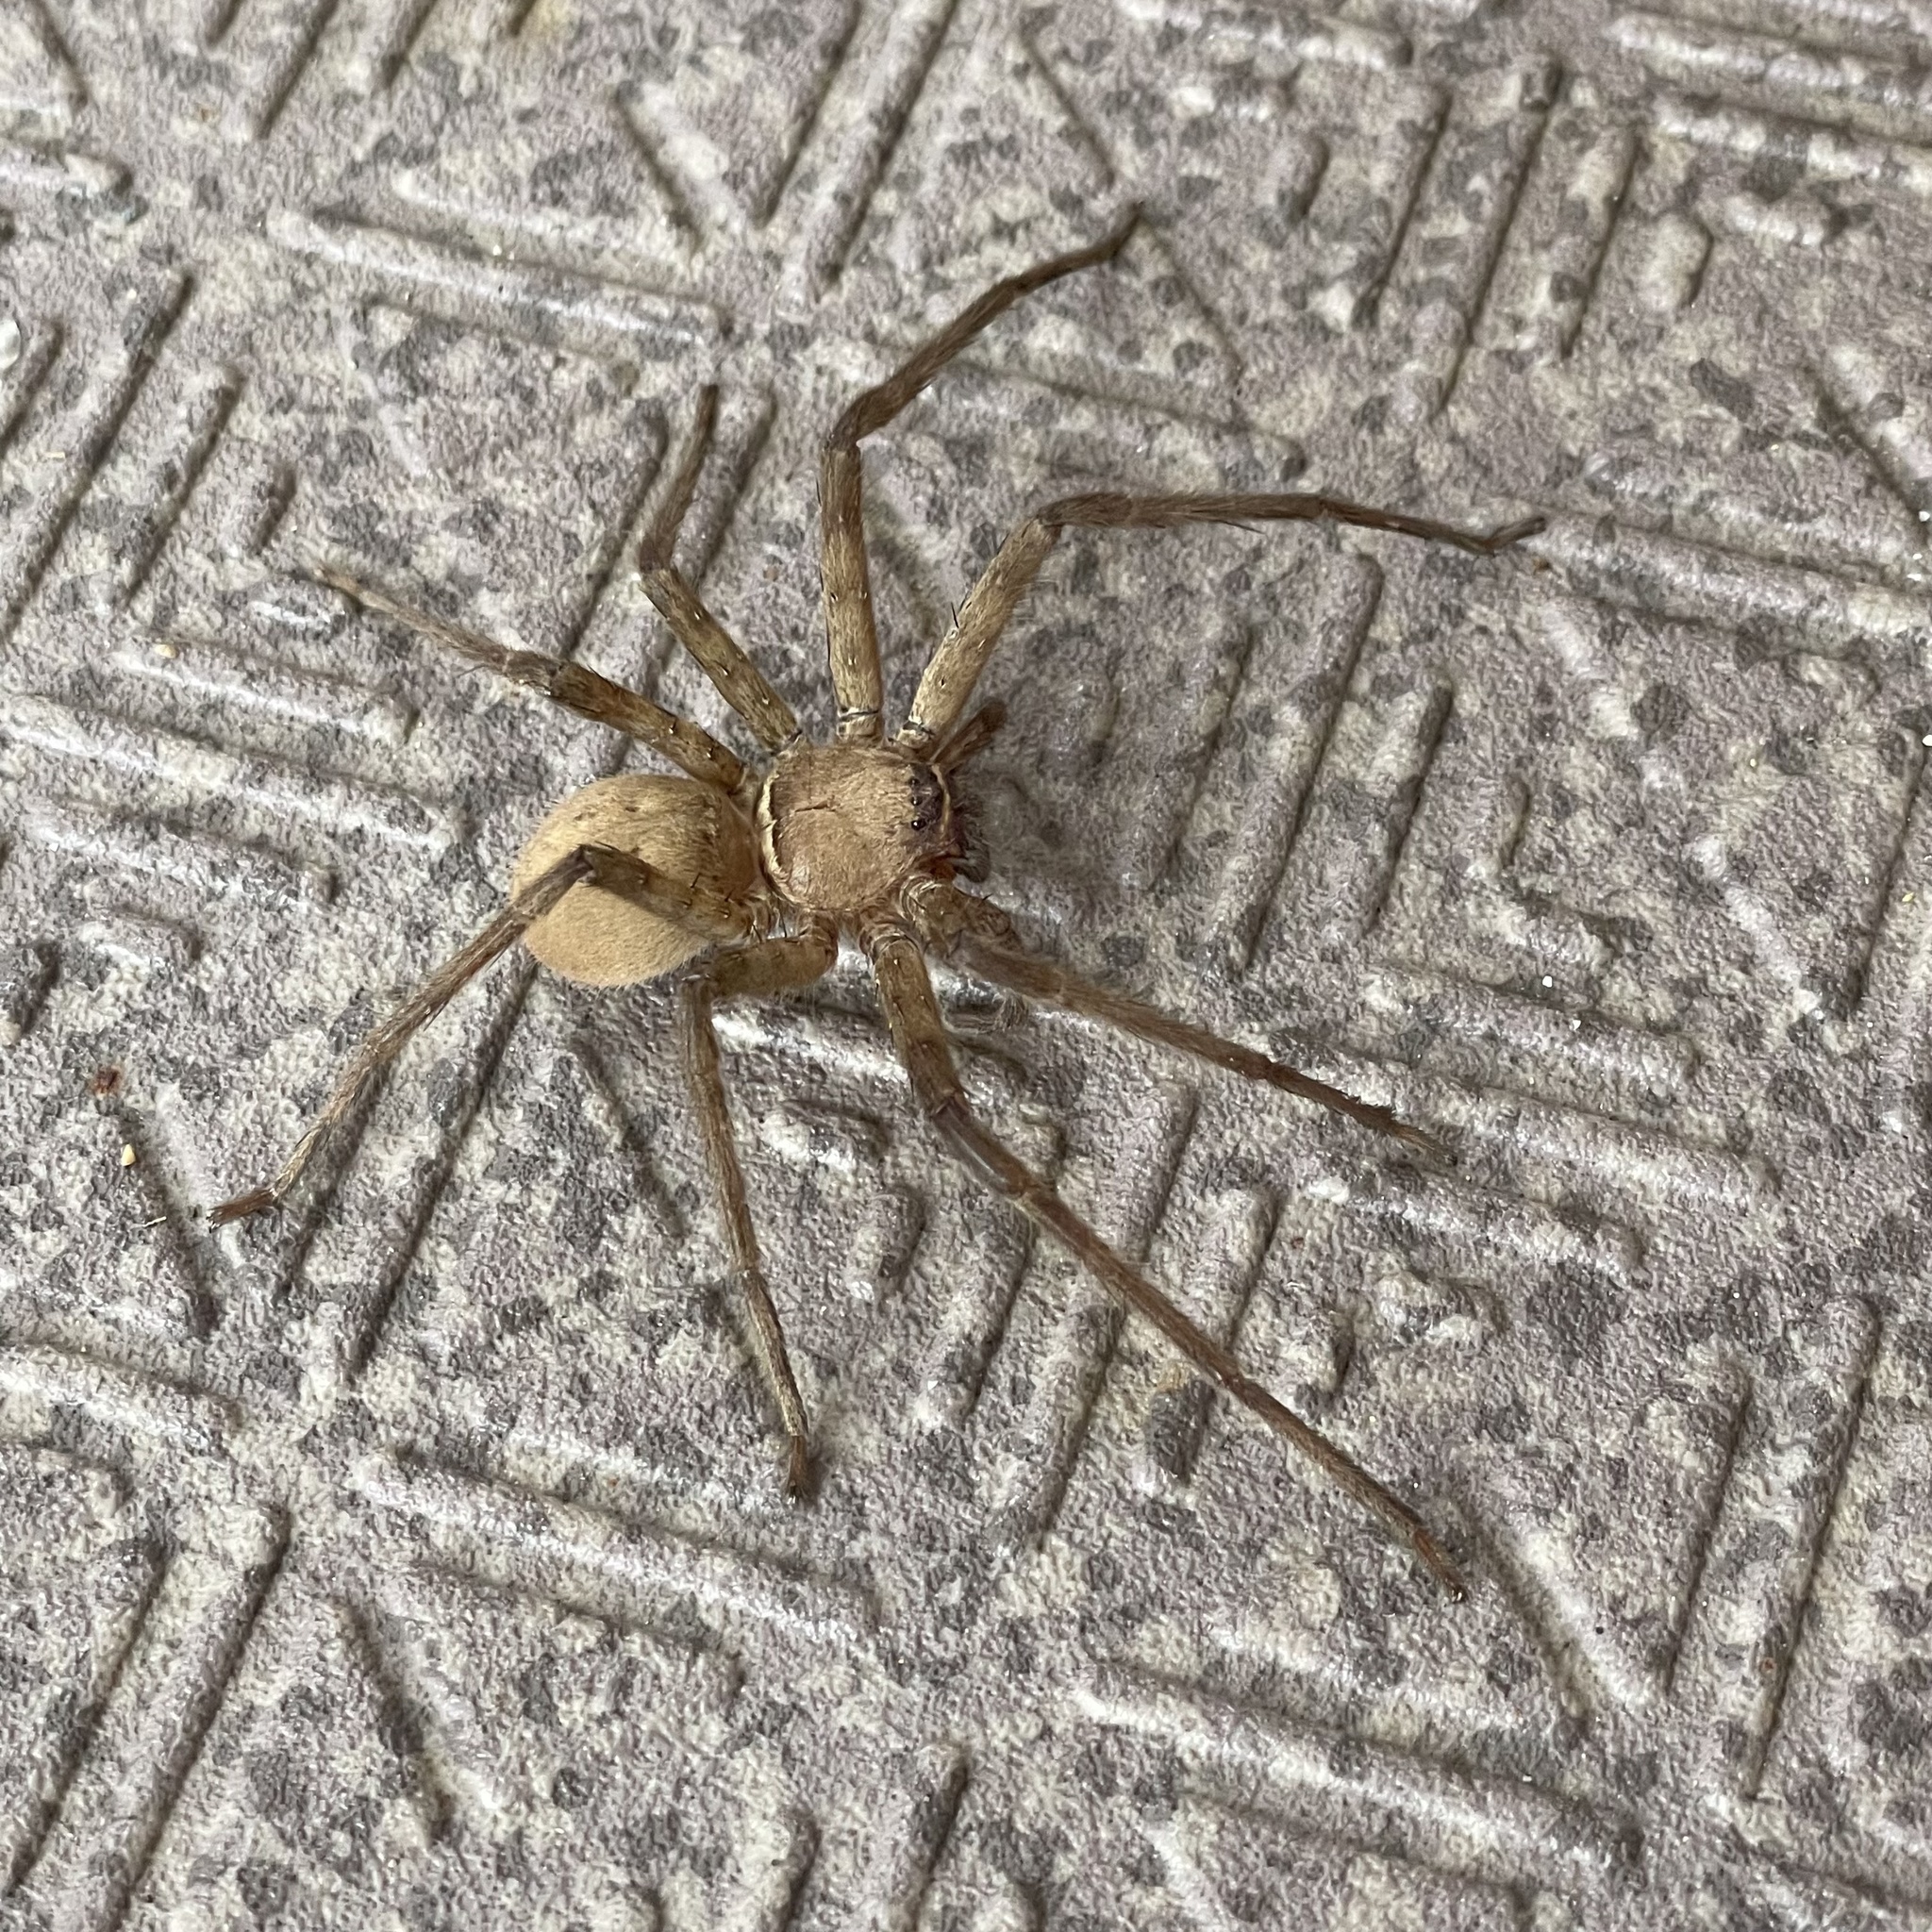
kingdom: Animalia
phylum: Arthropoda
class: Arachnida
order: Araneae
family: Sparassidae
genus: Heteropoda
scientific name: Heteropoda venatoria
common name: Huntsman spider
